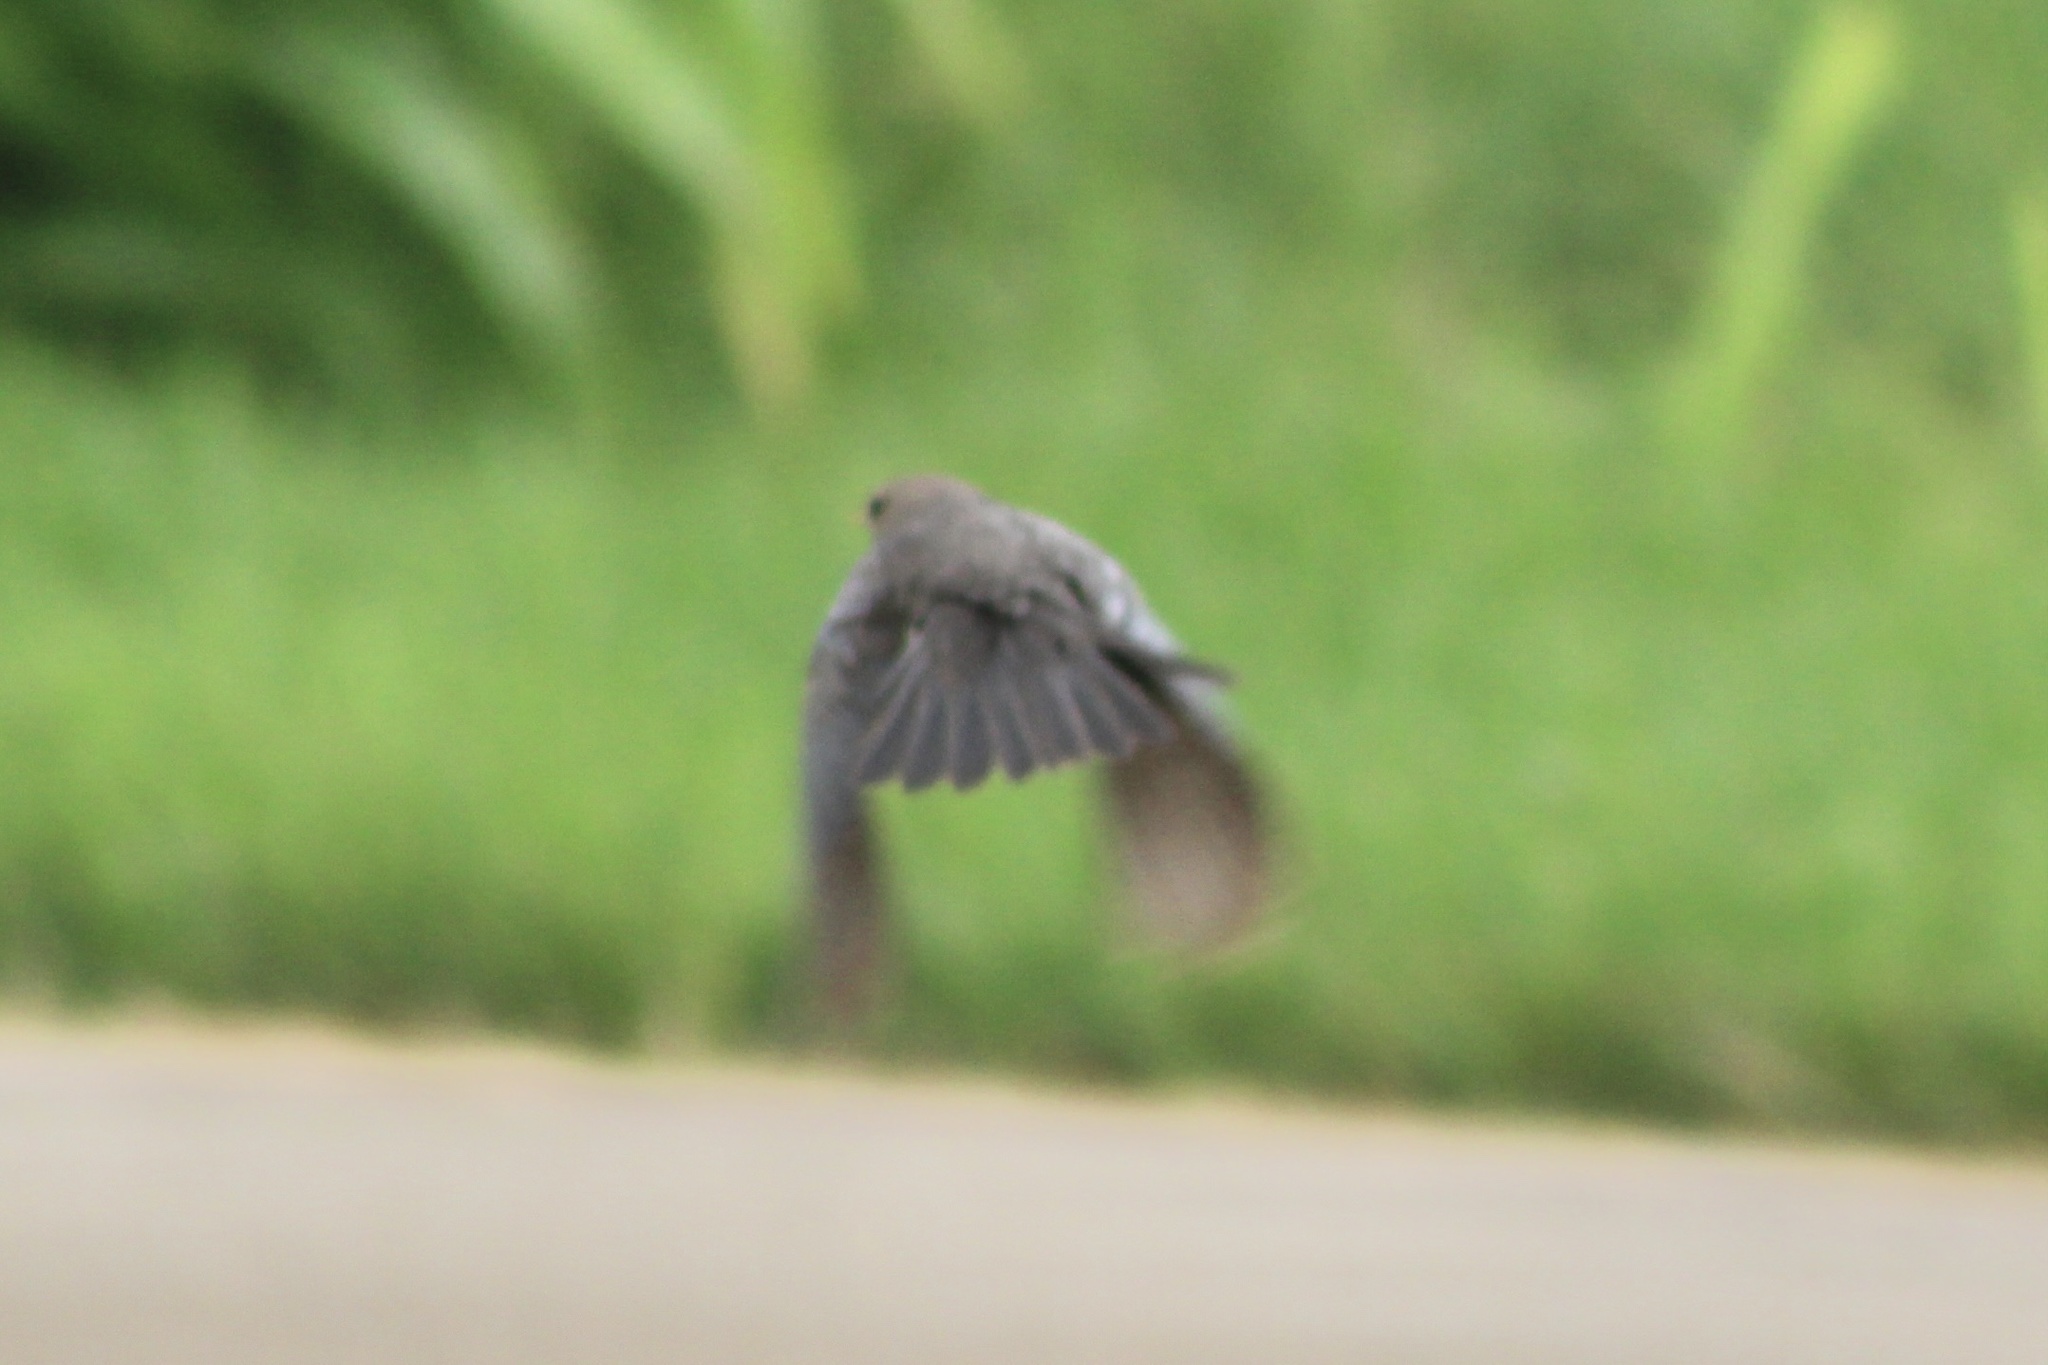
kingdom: Animalia
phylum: Chordata
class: Aves
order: Passeriformes
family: Icteridae
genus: Molothrus
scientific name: Molothrus ater
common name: Brown-headed cowbird
